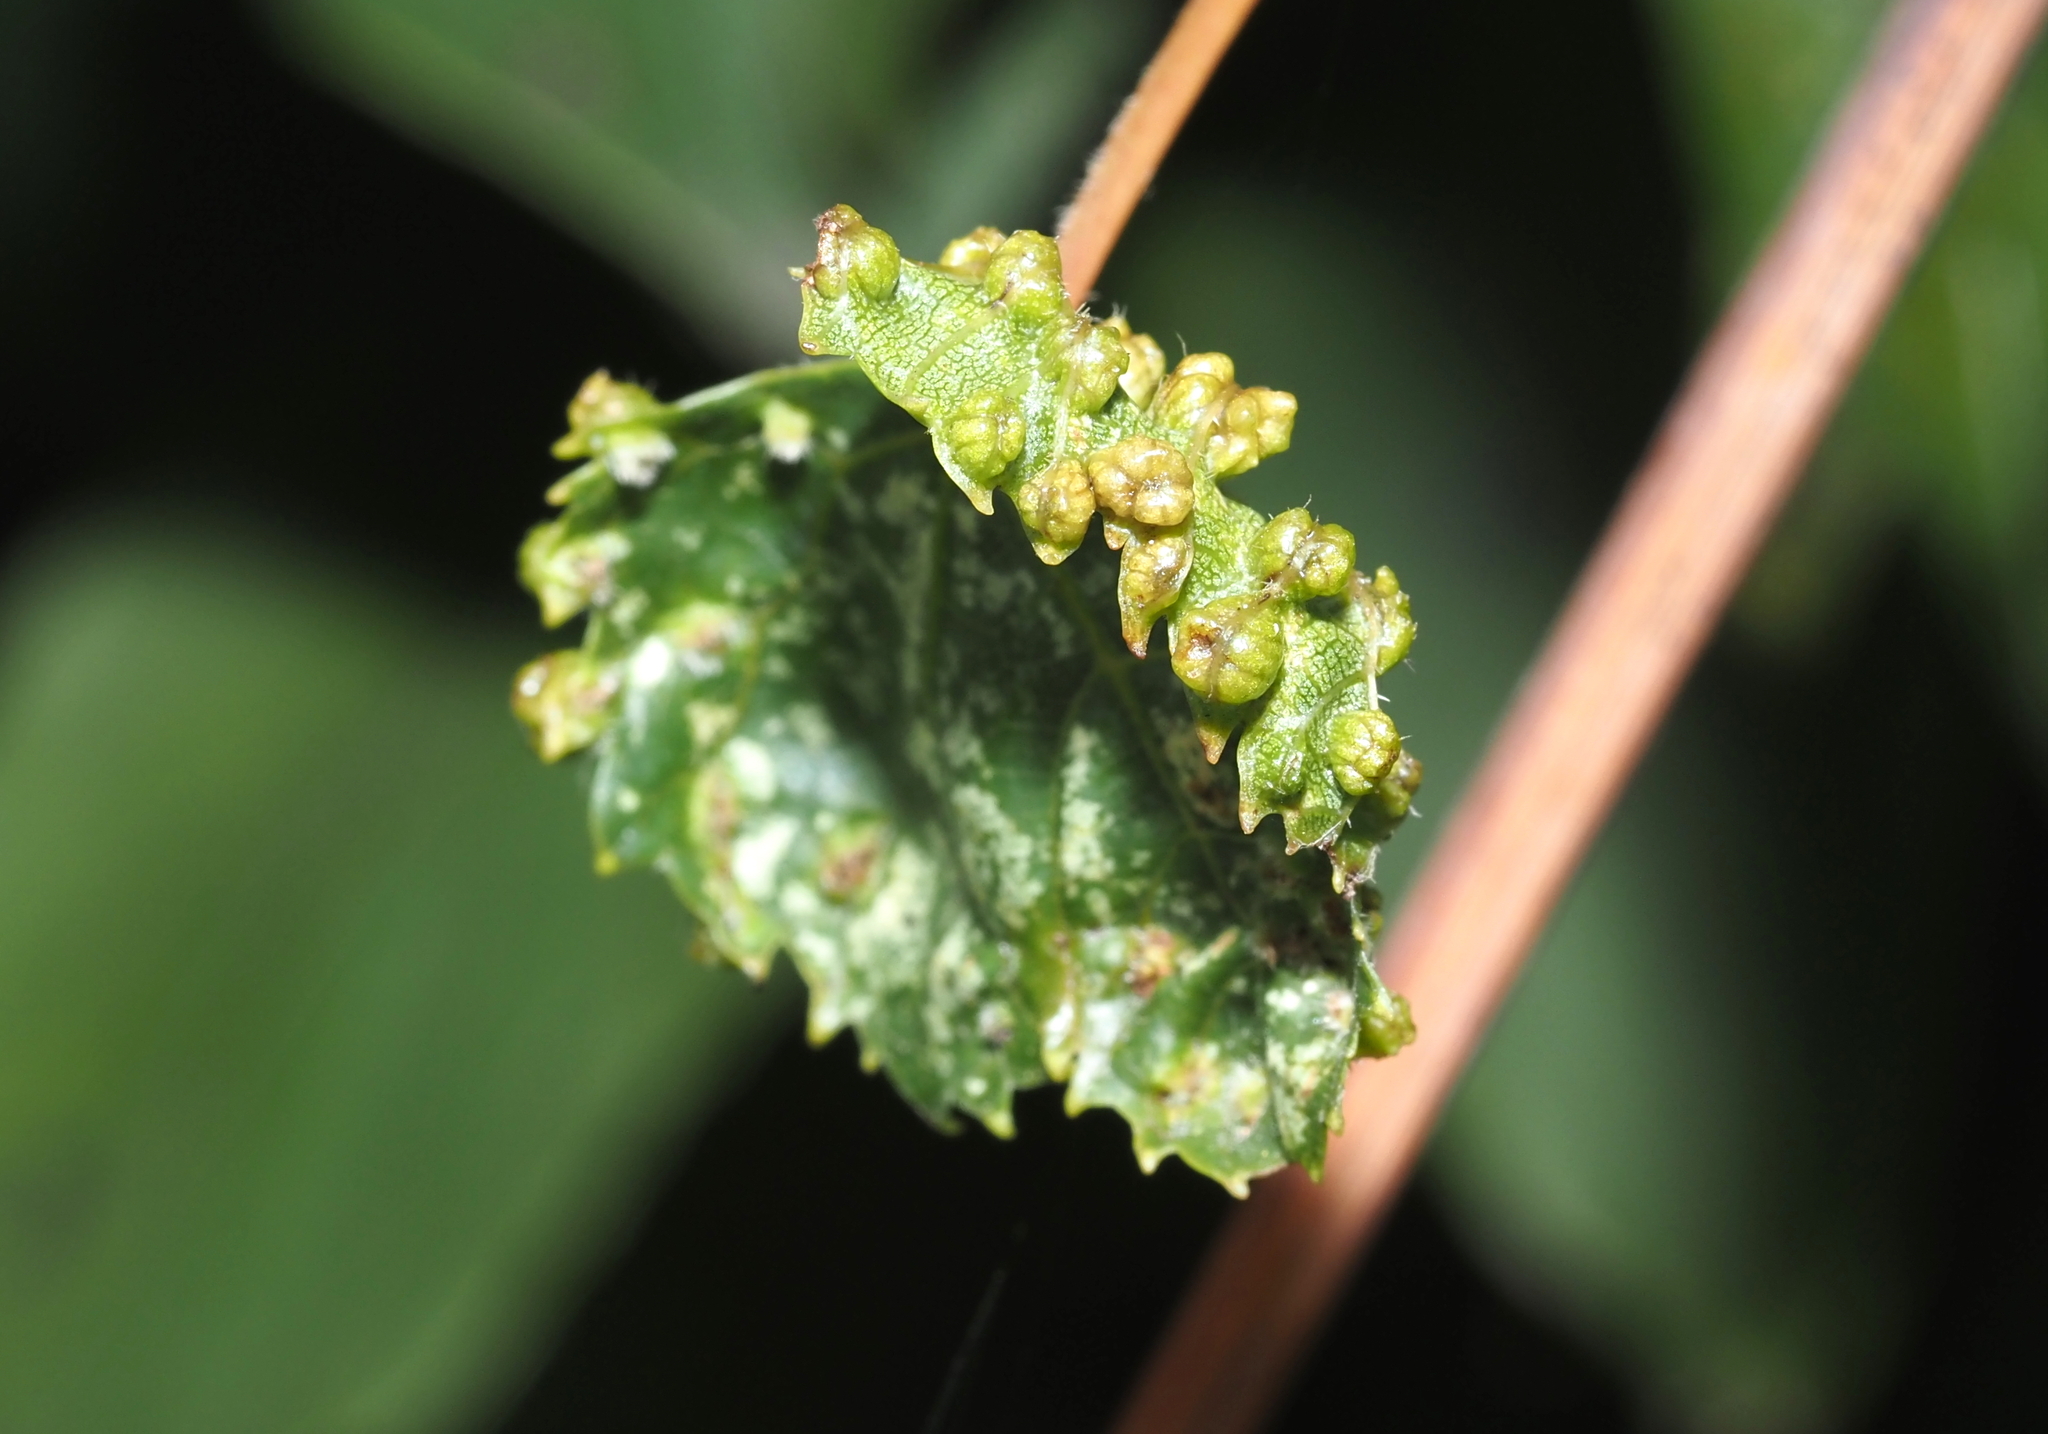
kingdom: Animalia
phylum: Arthropoda
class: Insecta
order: Hemiptera
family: Phylloxeridae
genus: Daktulosphaira
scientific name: Daktulosphaira vitifoliae
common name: Grape phylloxera
